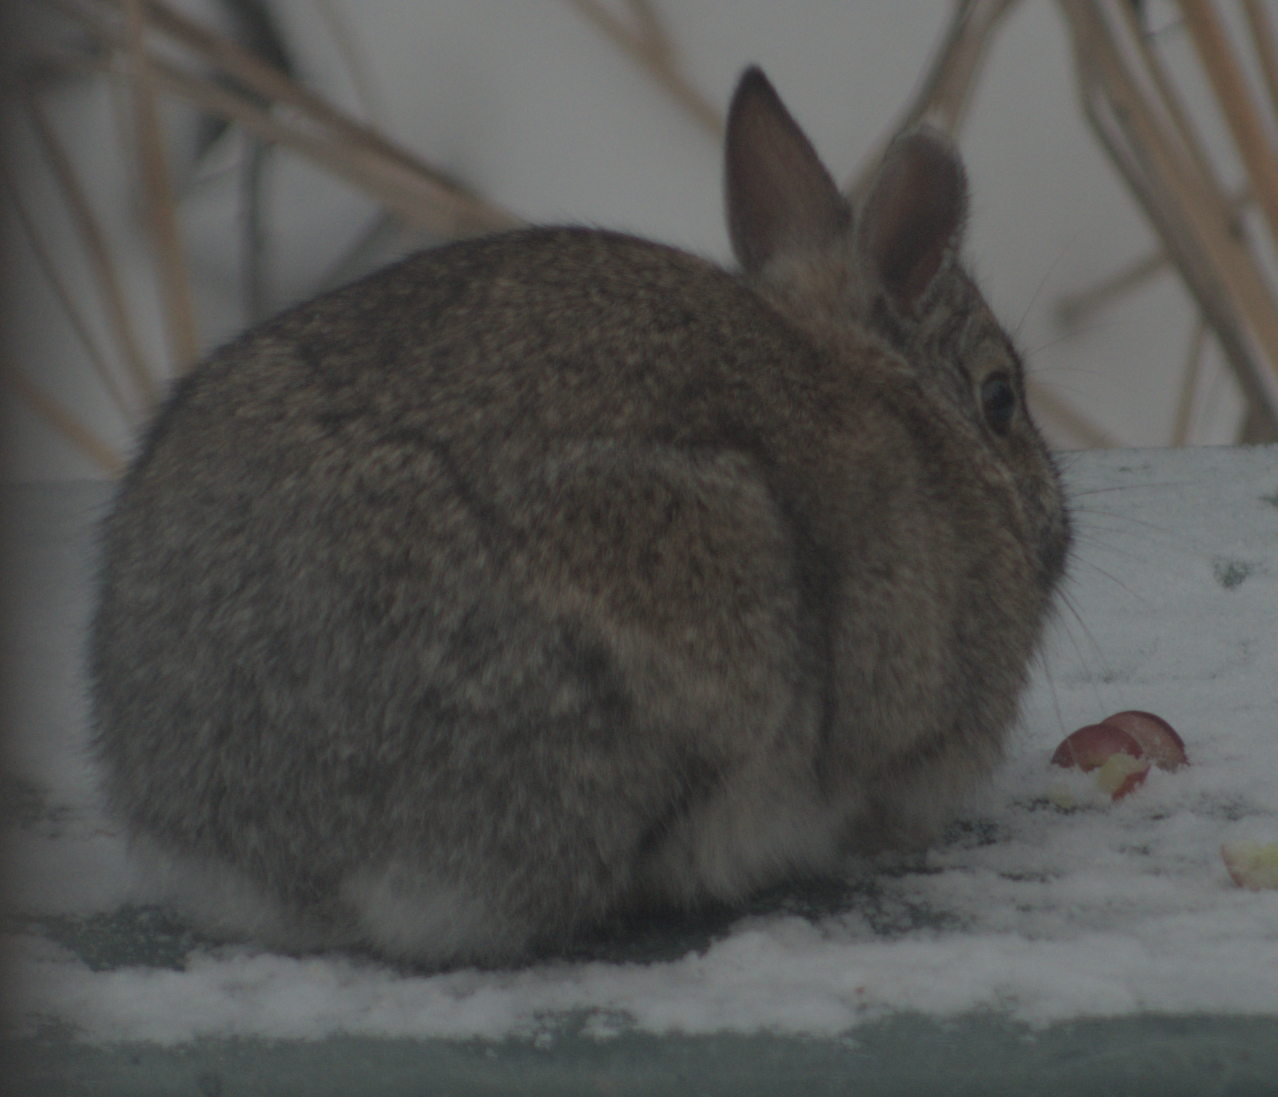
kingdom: Animalia
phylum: Chordata
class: Mammalia
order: Lagomorpha
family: Leporidae
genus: Sylvilagus
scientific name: Sylvilagus floridanus
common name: Eastern cottontail
